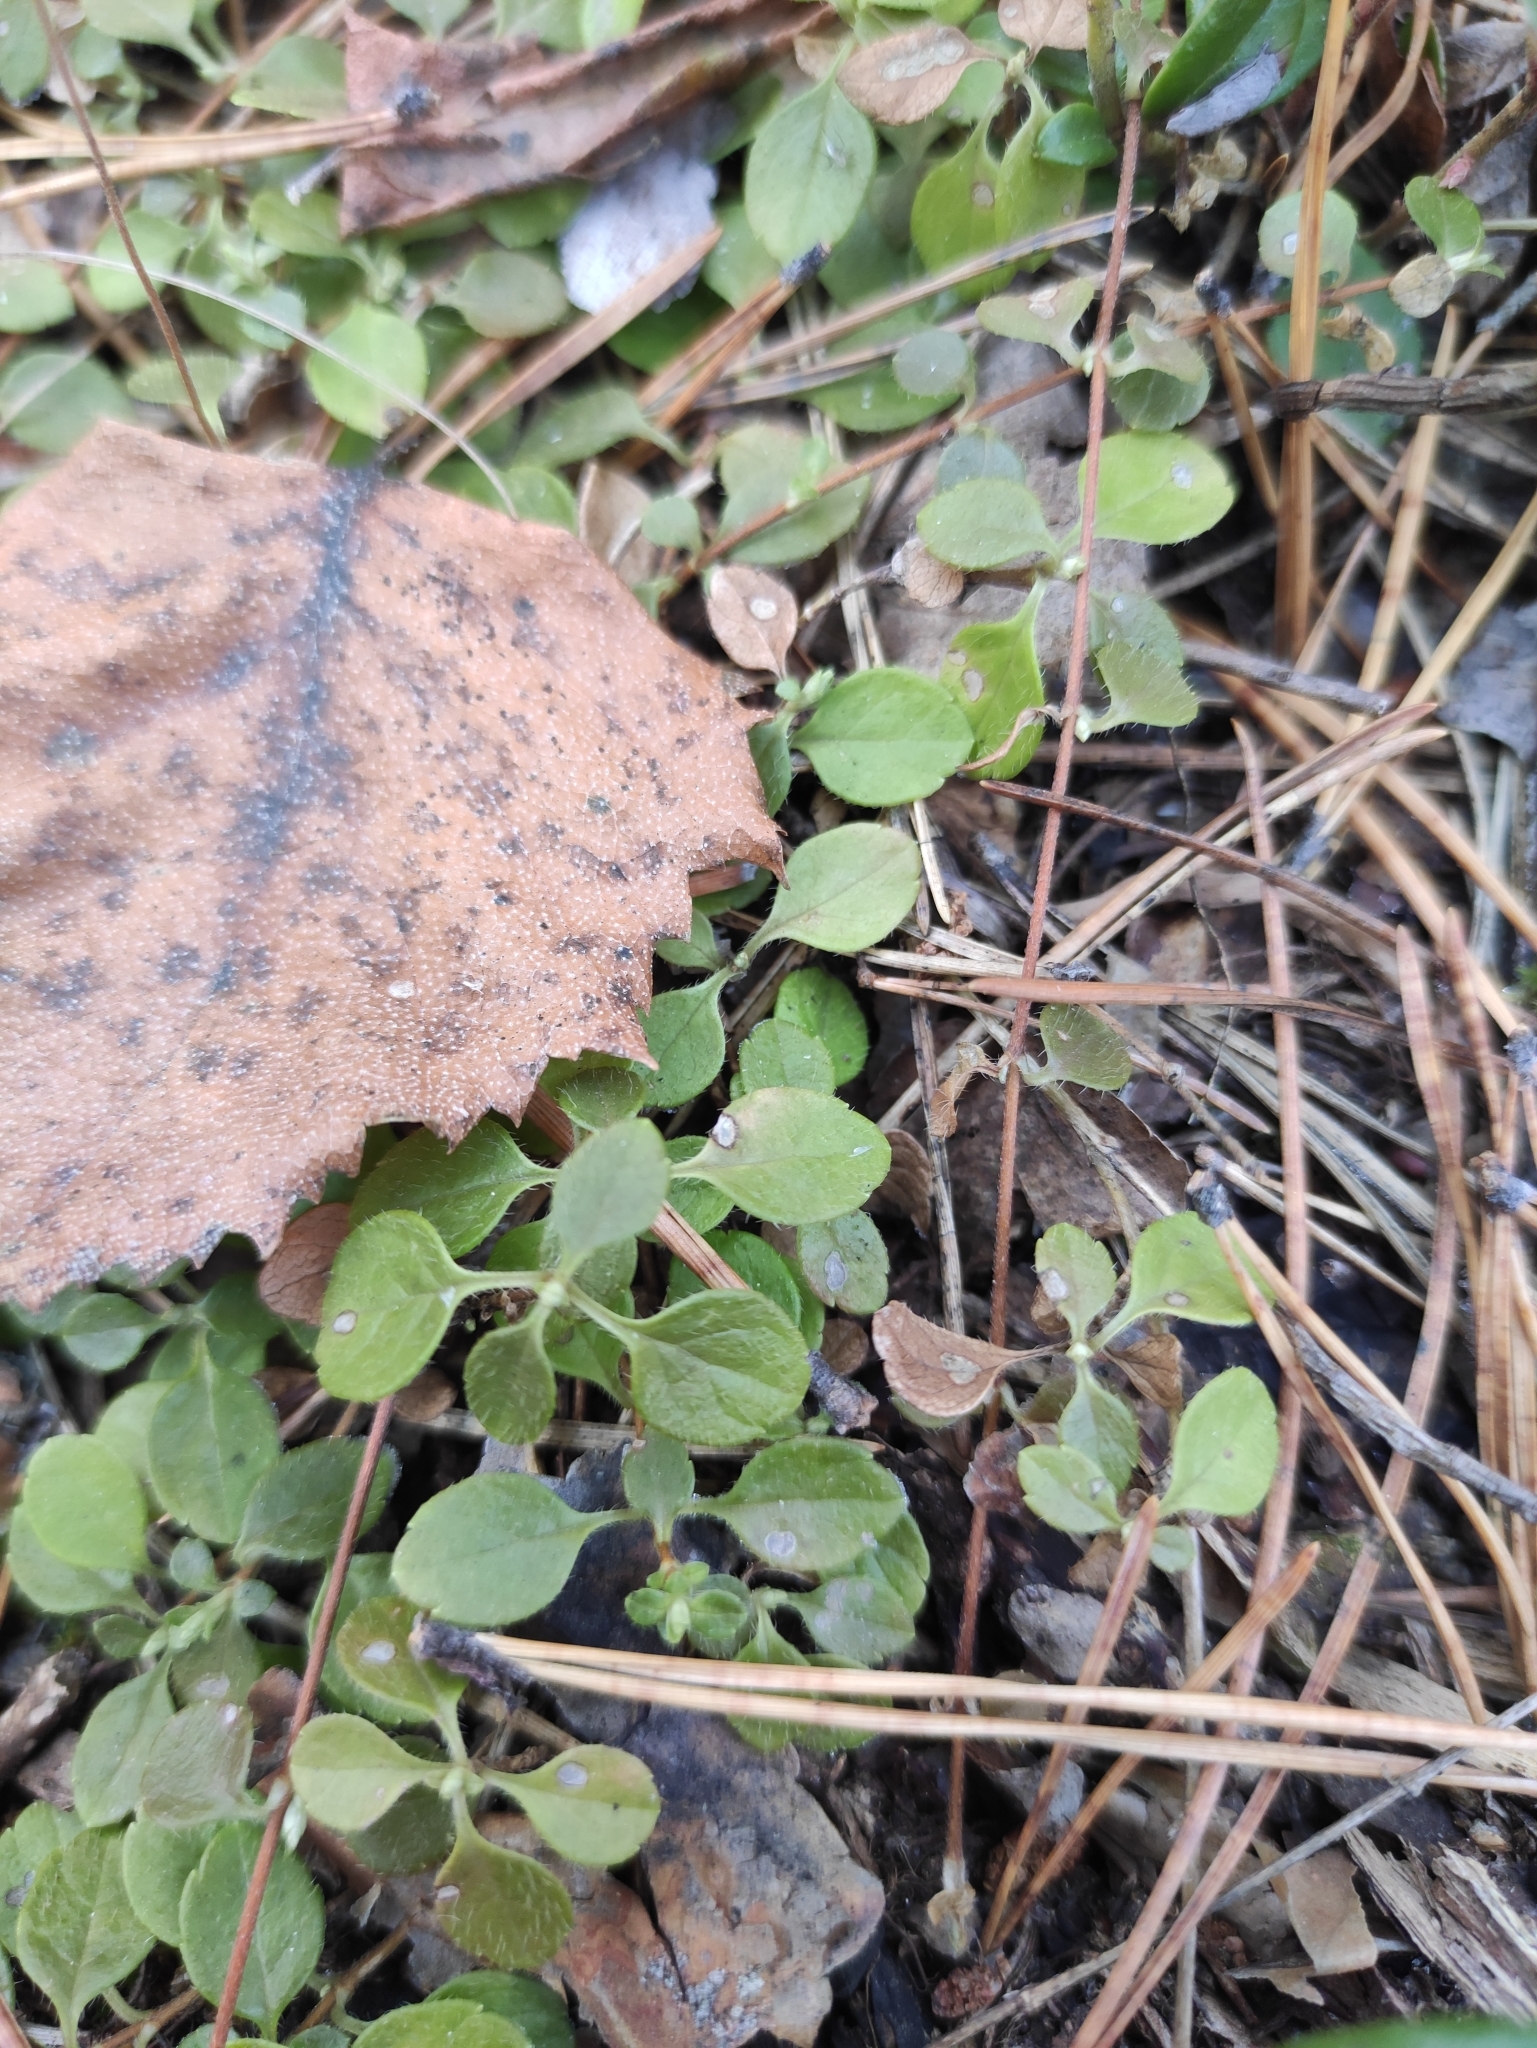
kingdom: Plantae
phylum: Tracheophyta
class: Magnoliopsida
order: Dipsacales
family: Caprifoliaceae
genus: Linnaea
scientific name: Linnaea borealis
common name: Twinflower
